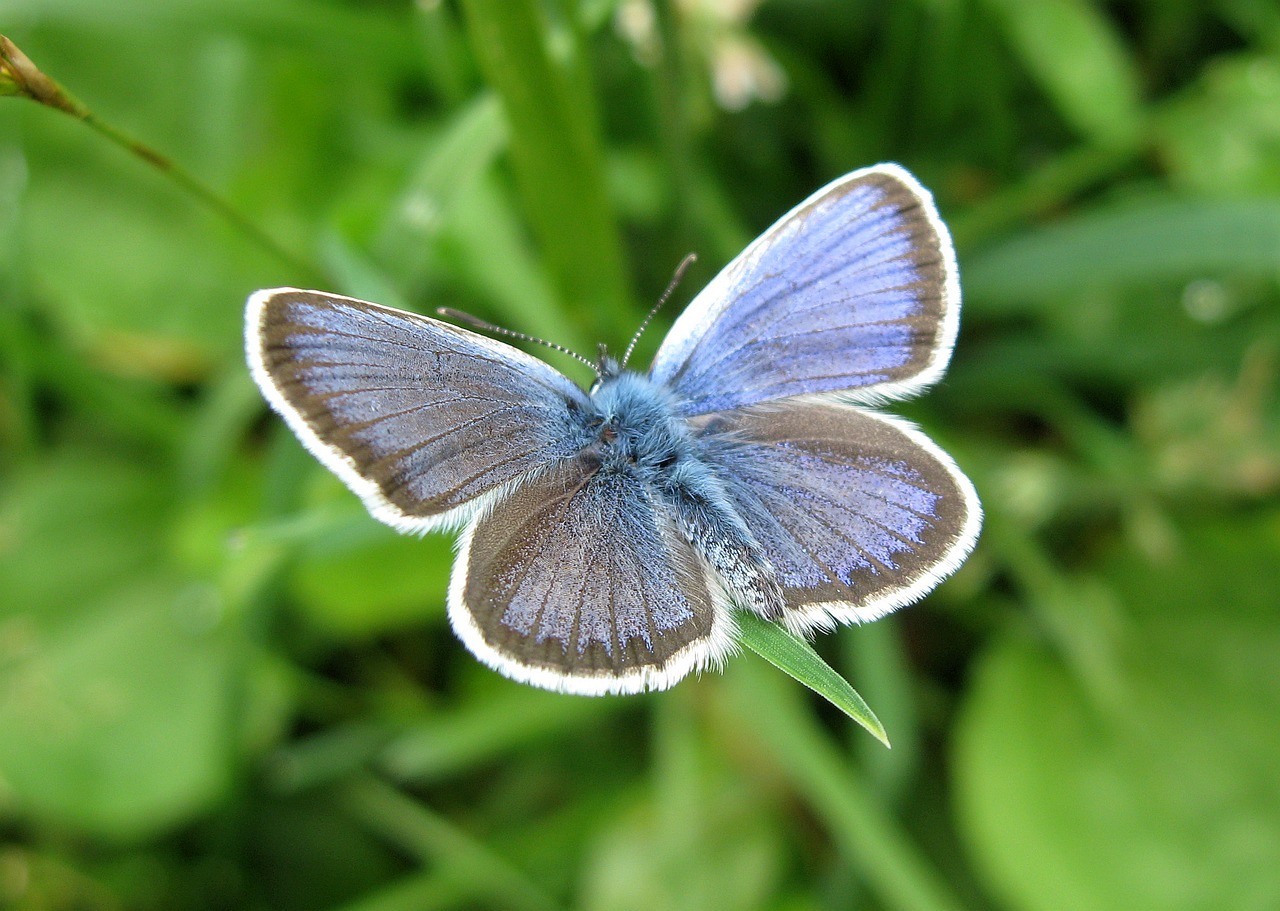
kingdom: Animalia
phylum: Arthropoda
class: Insecta
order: Lepidoptera
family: Lycaenidae
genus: Plebejus
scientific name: Plebejus argus
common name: Silver-studded blue
